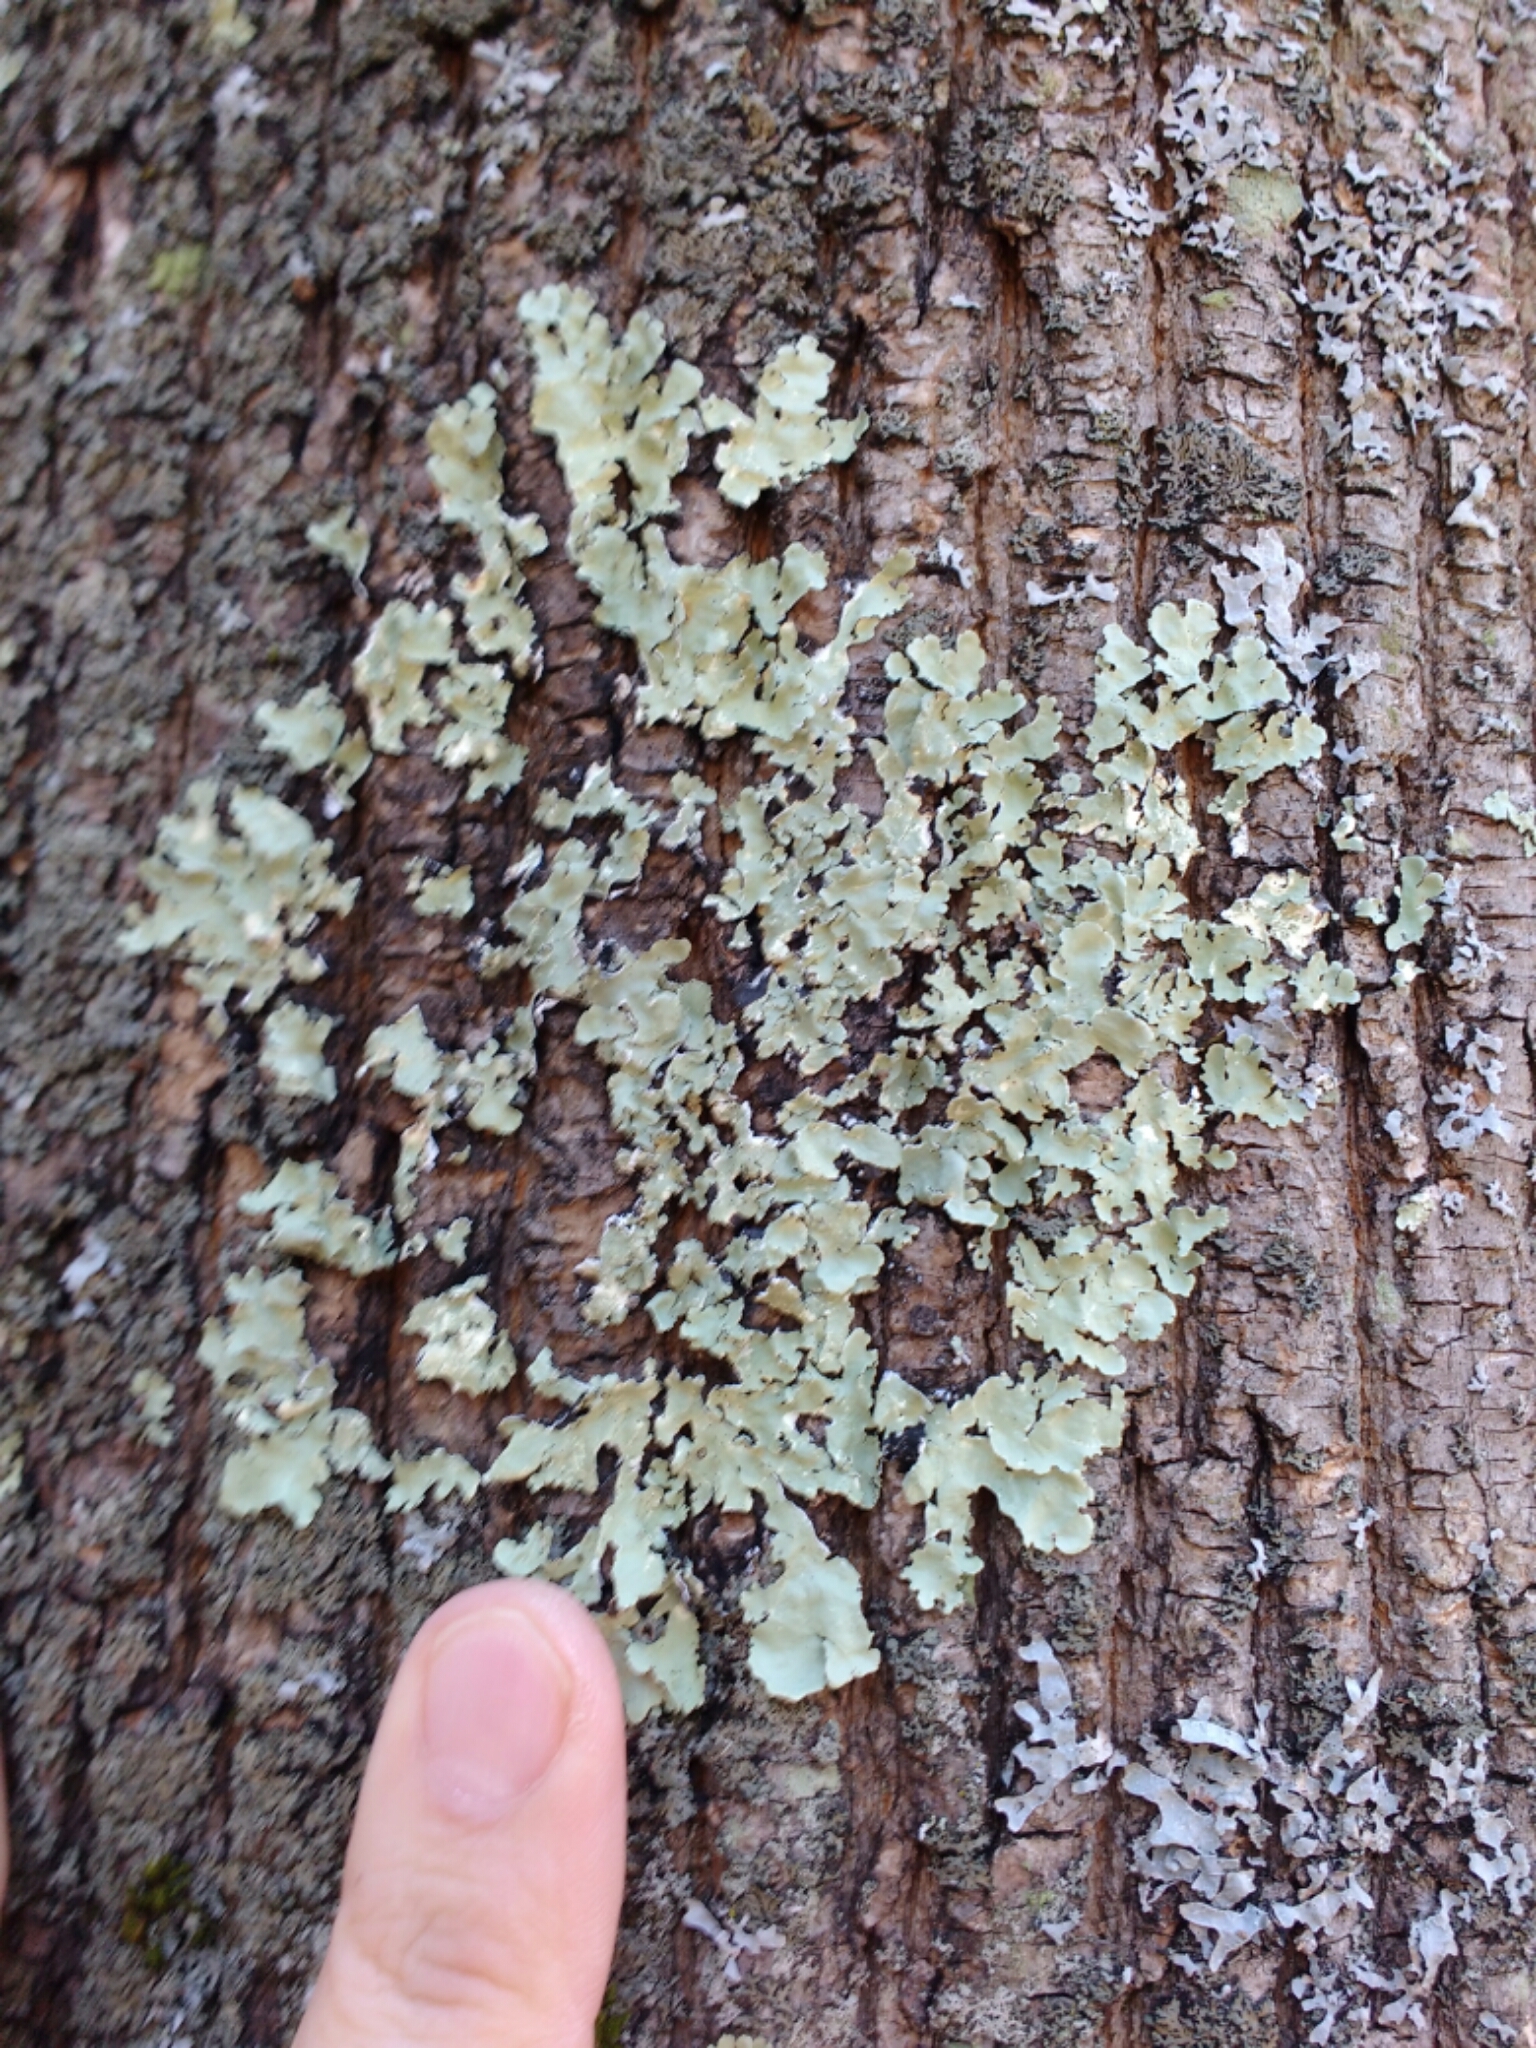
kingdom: Fungi
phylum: Ascomycota
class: Lecanoromycetes
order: Lecanorales
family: Parmeliaceae
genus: Flavoparmelia
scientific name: Flavoparmelia caperata
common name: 40-mile per hour lichen
